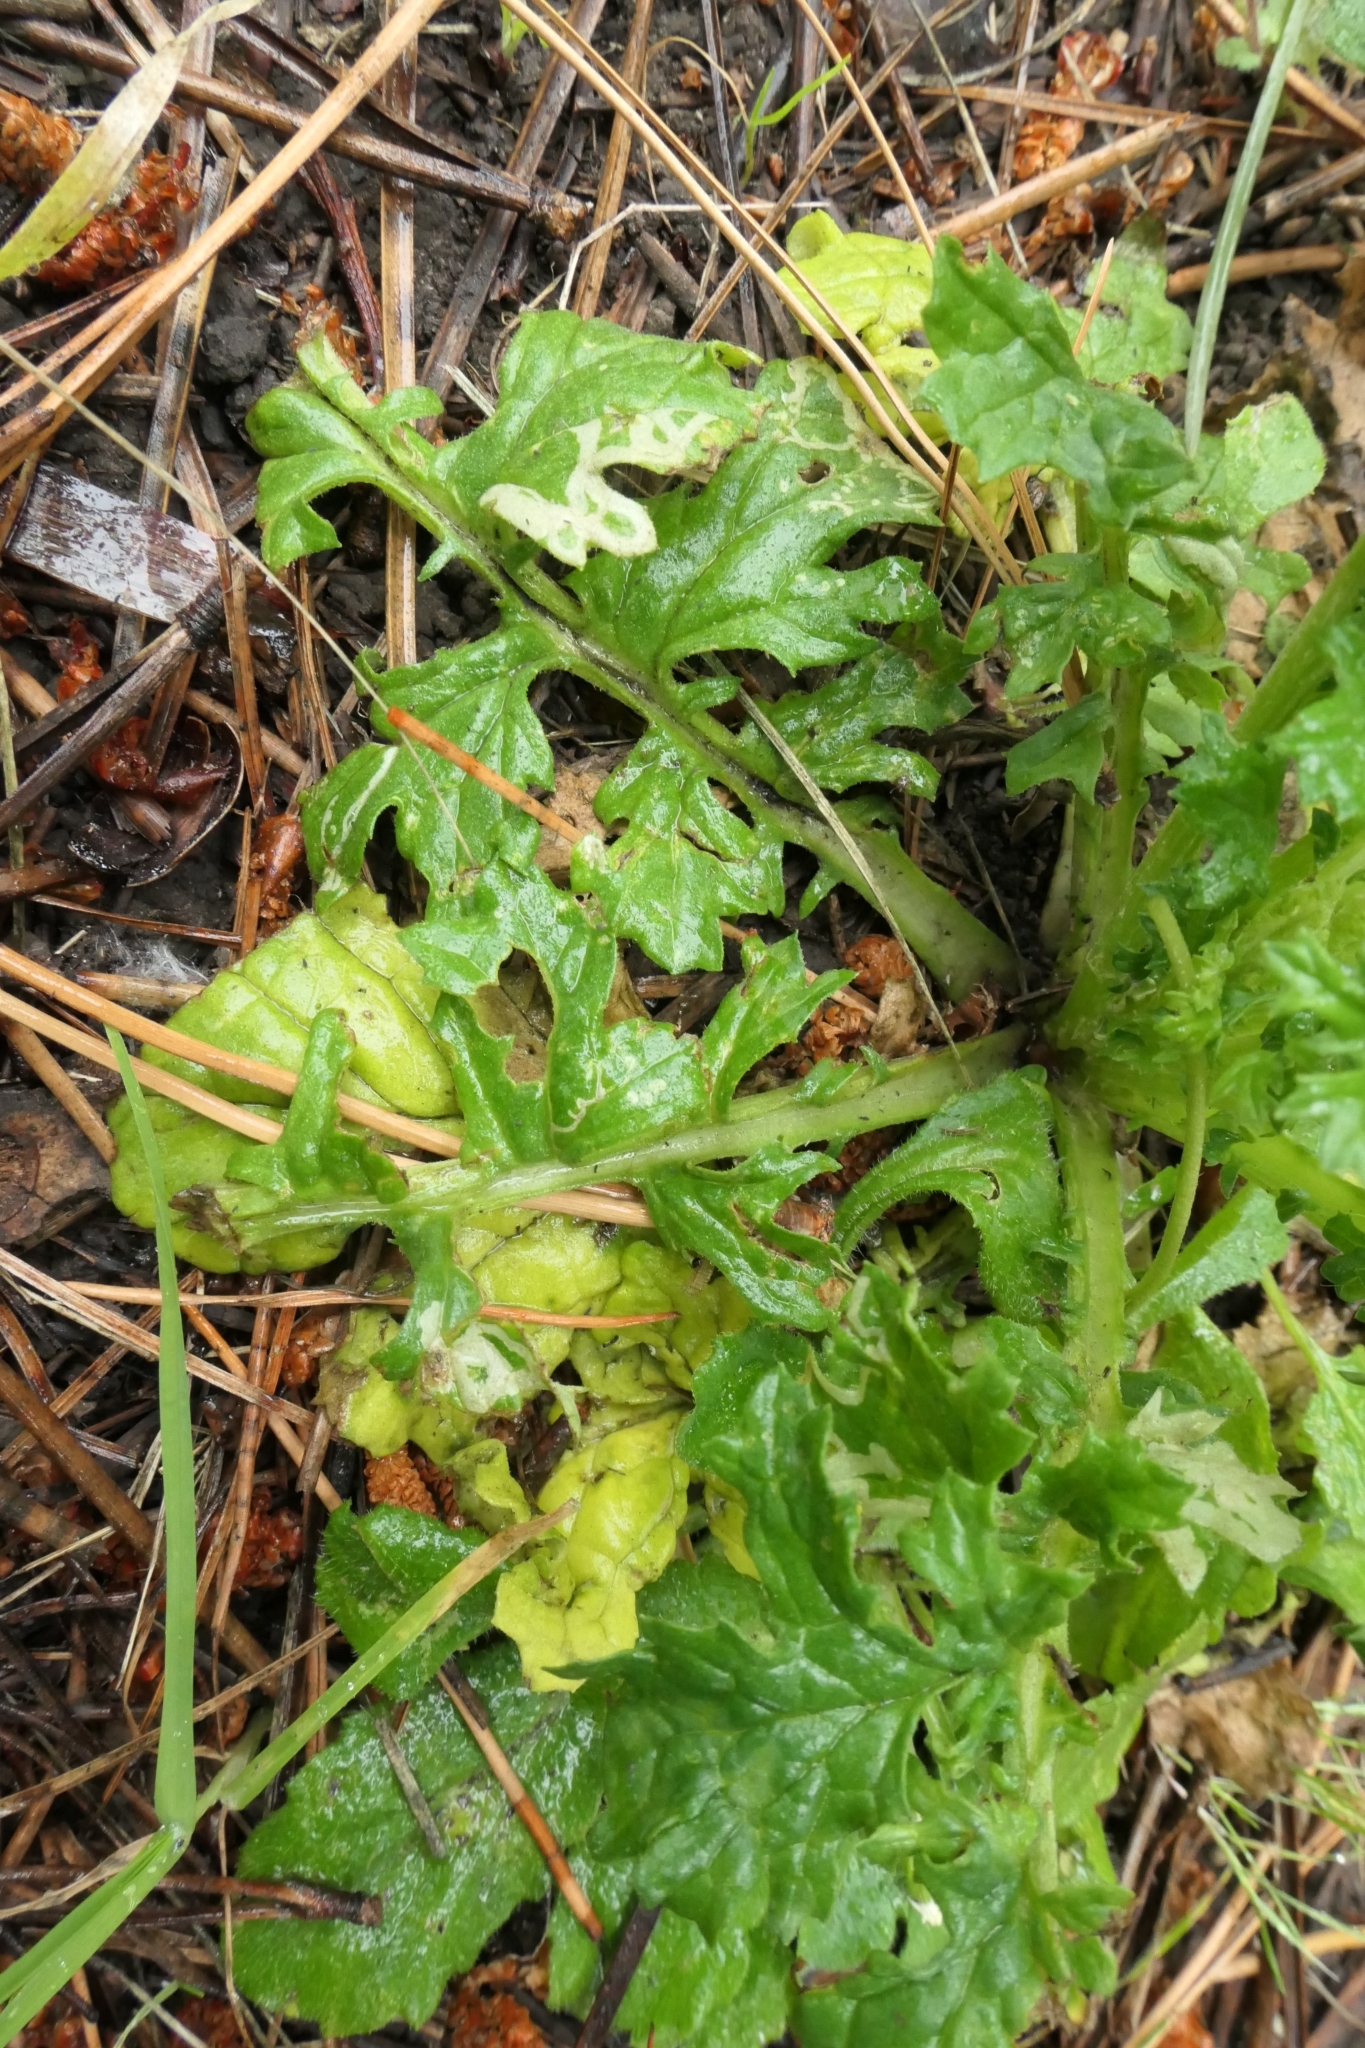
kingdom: Plantae
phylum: Tracheophyta
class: Magnoliopsida
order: Asterales
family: Asteraceae
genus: Jacobaea
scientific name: Jacobaea vulgaris
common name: Stinking willie
